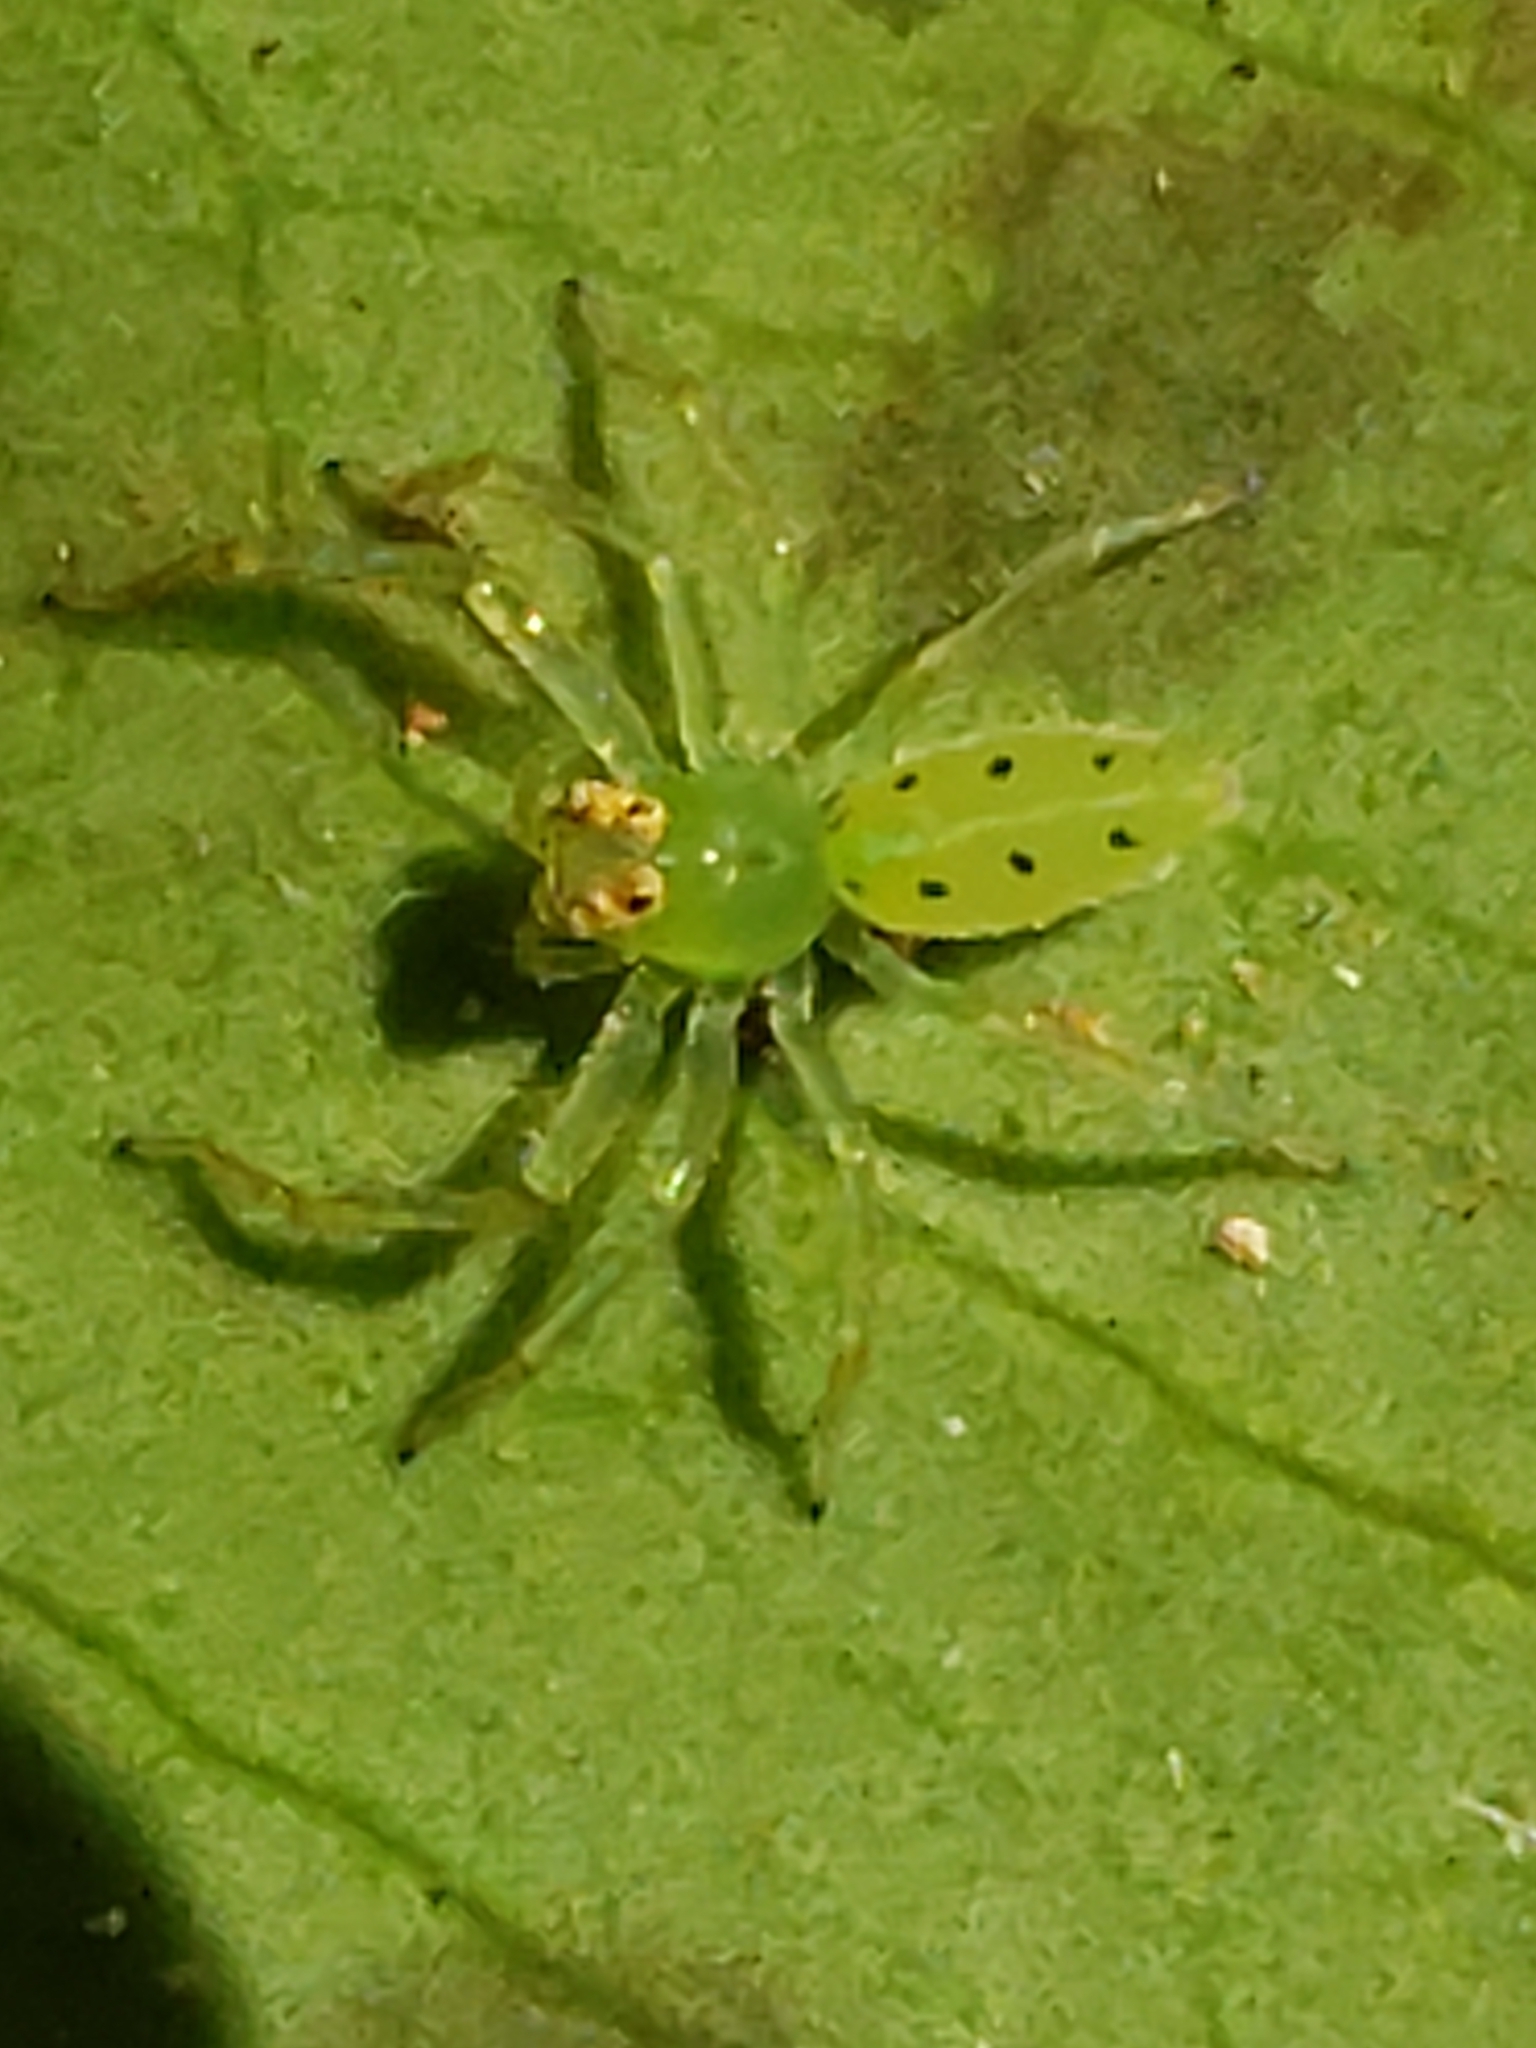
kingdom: Animalia
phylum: Arthropoda
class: Arachnida
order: Araneae
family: Salticidae
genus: Lyssomanes
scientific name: Lyssomanes viridis
